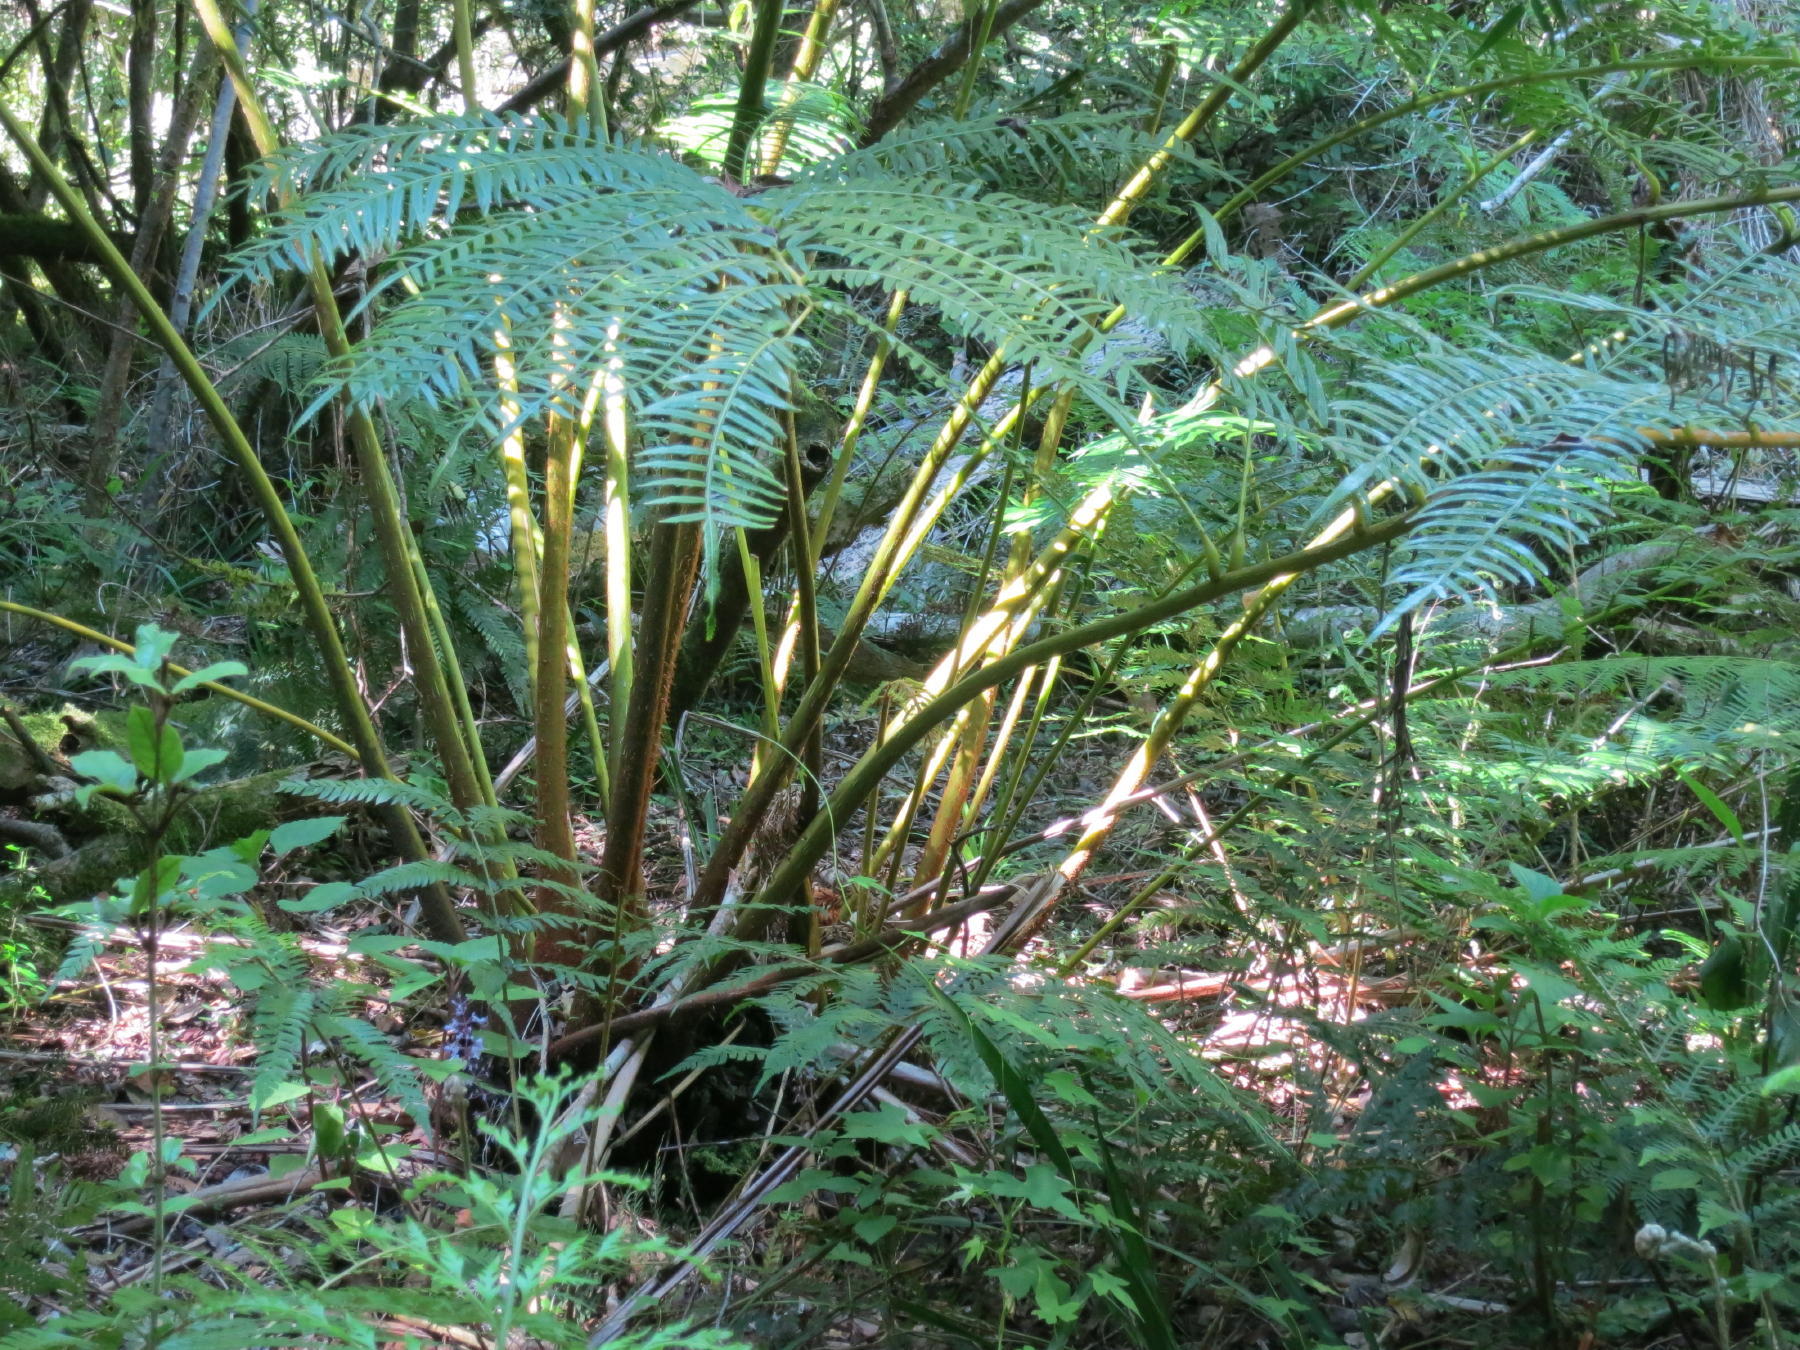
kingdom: Plantae
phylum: Tracheophyta
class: Polypodiopsida
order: Marattiales
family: Marattiaceae
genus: Ptisana
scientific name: Ptisana salicifolia
